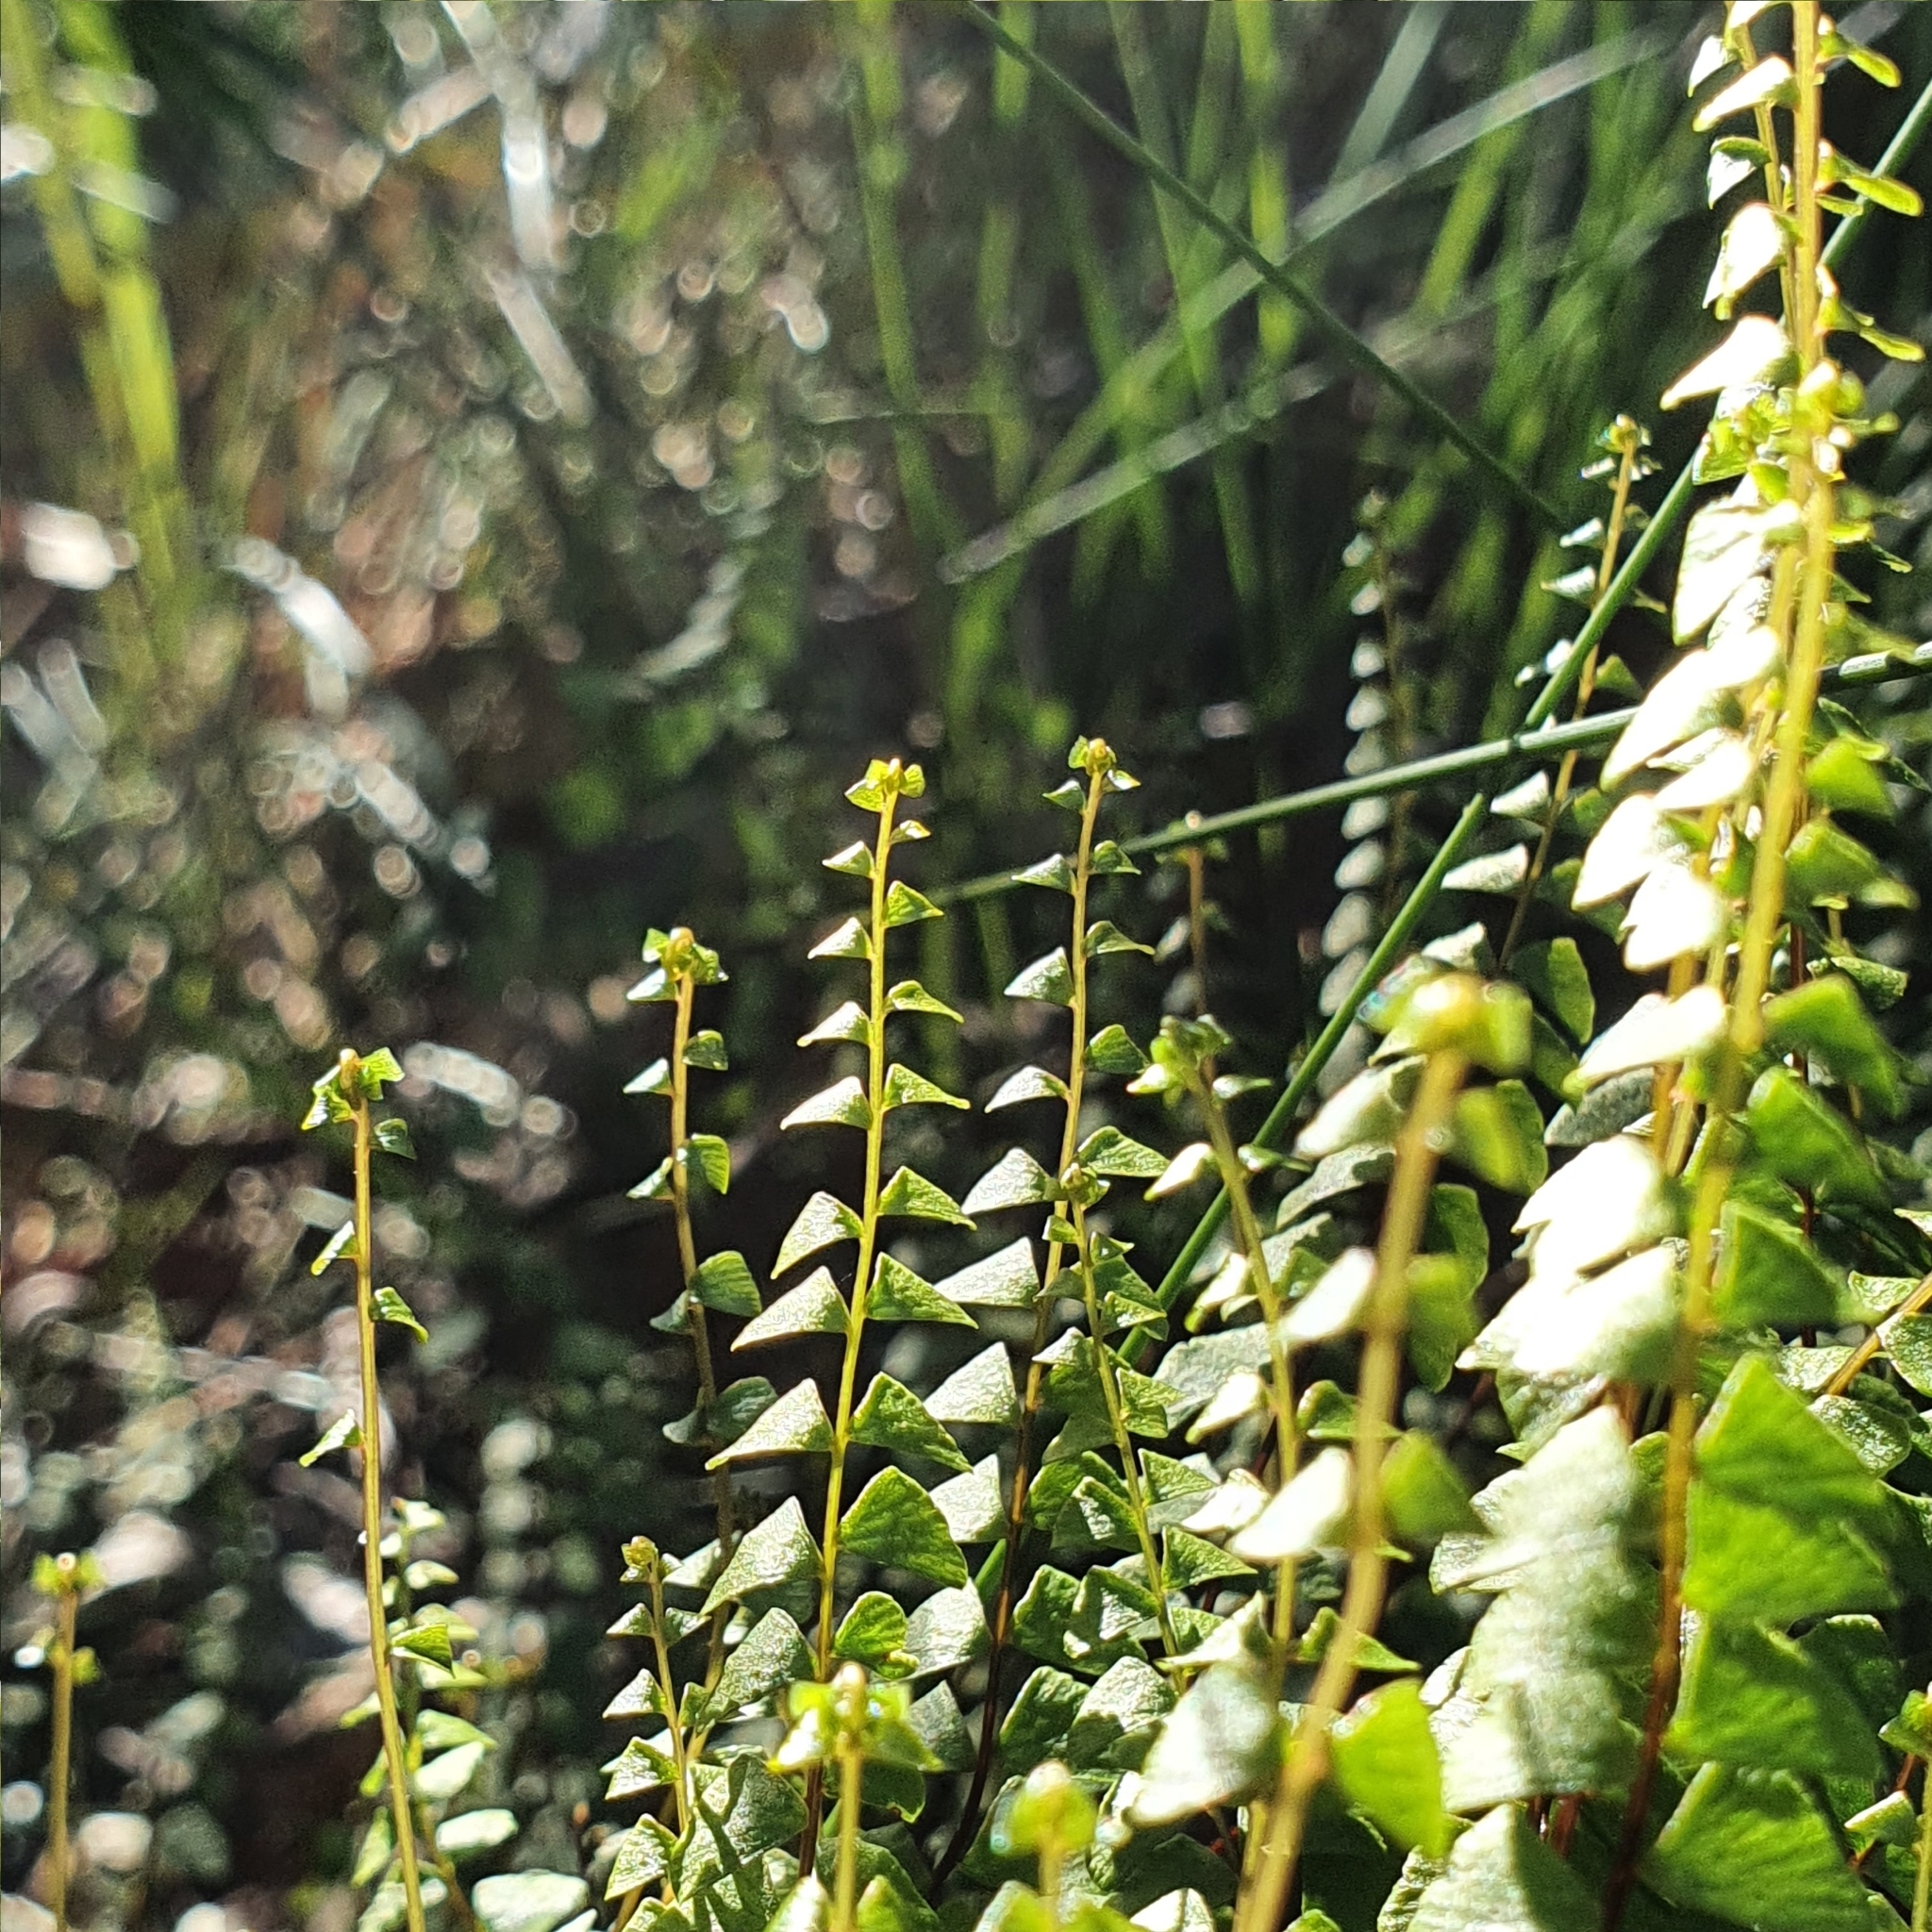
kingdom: Plantae
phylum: Tracheophyta
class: Polypodiopsida
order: Polypodiales
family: Lindsaeaceae
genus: Lindsaea
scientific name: Lindsaea linearis
